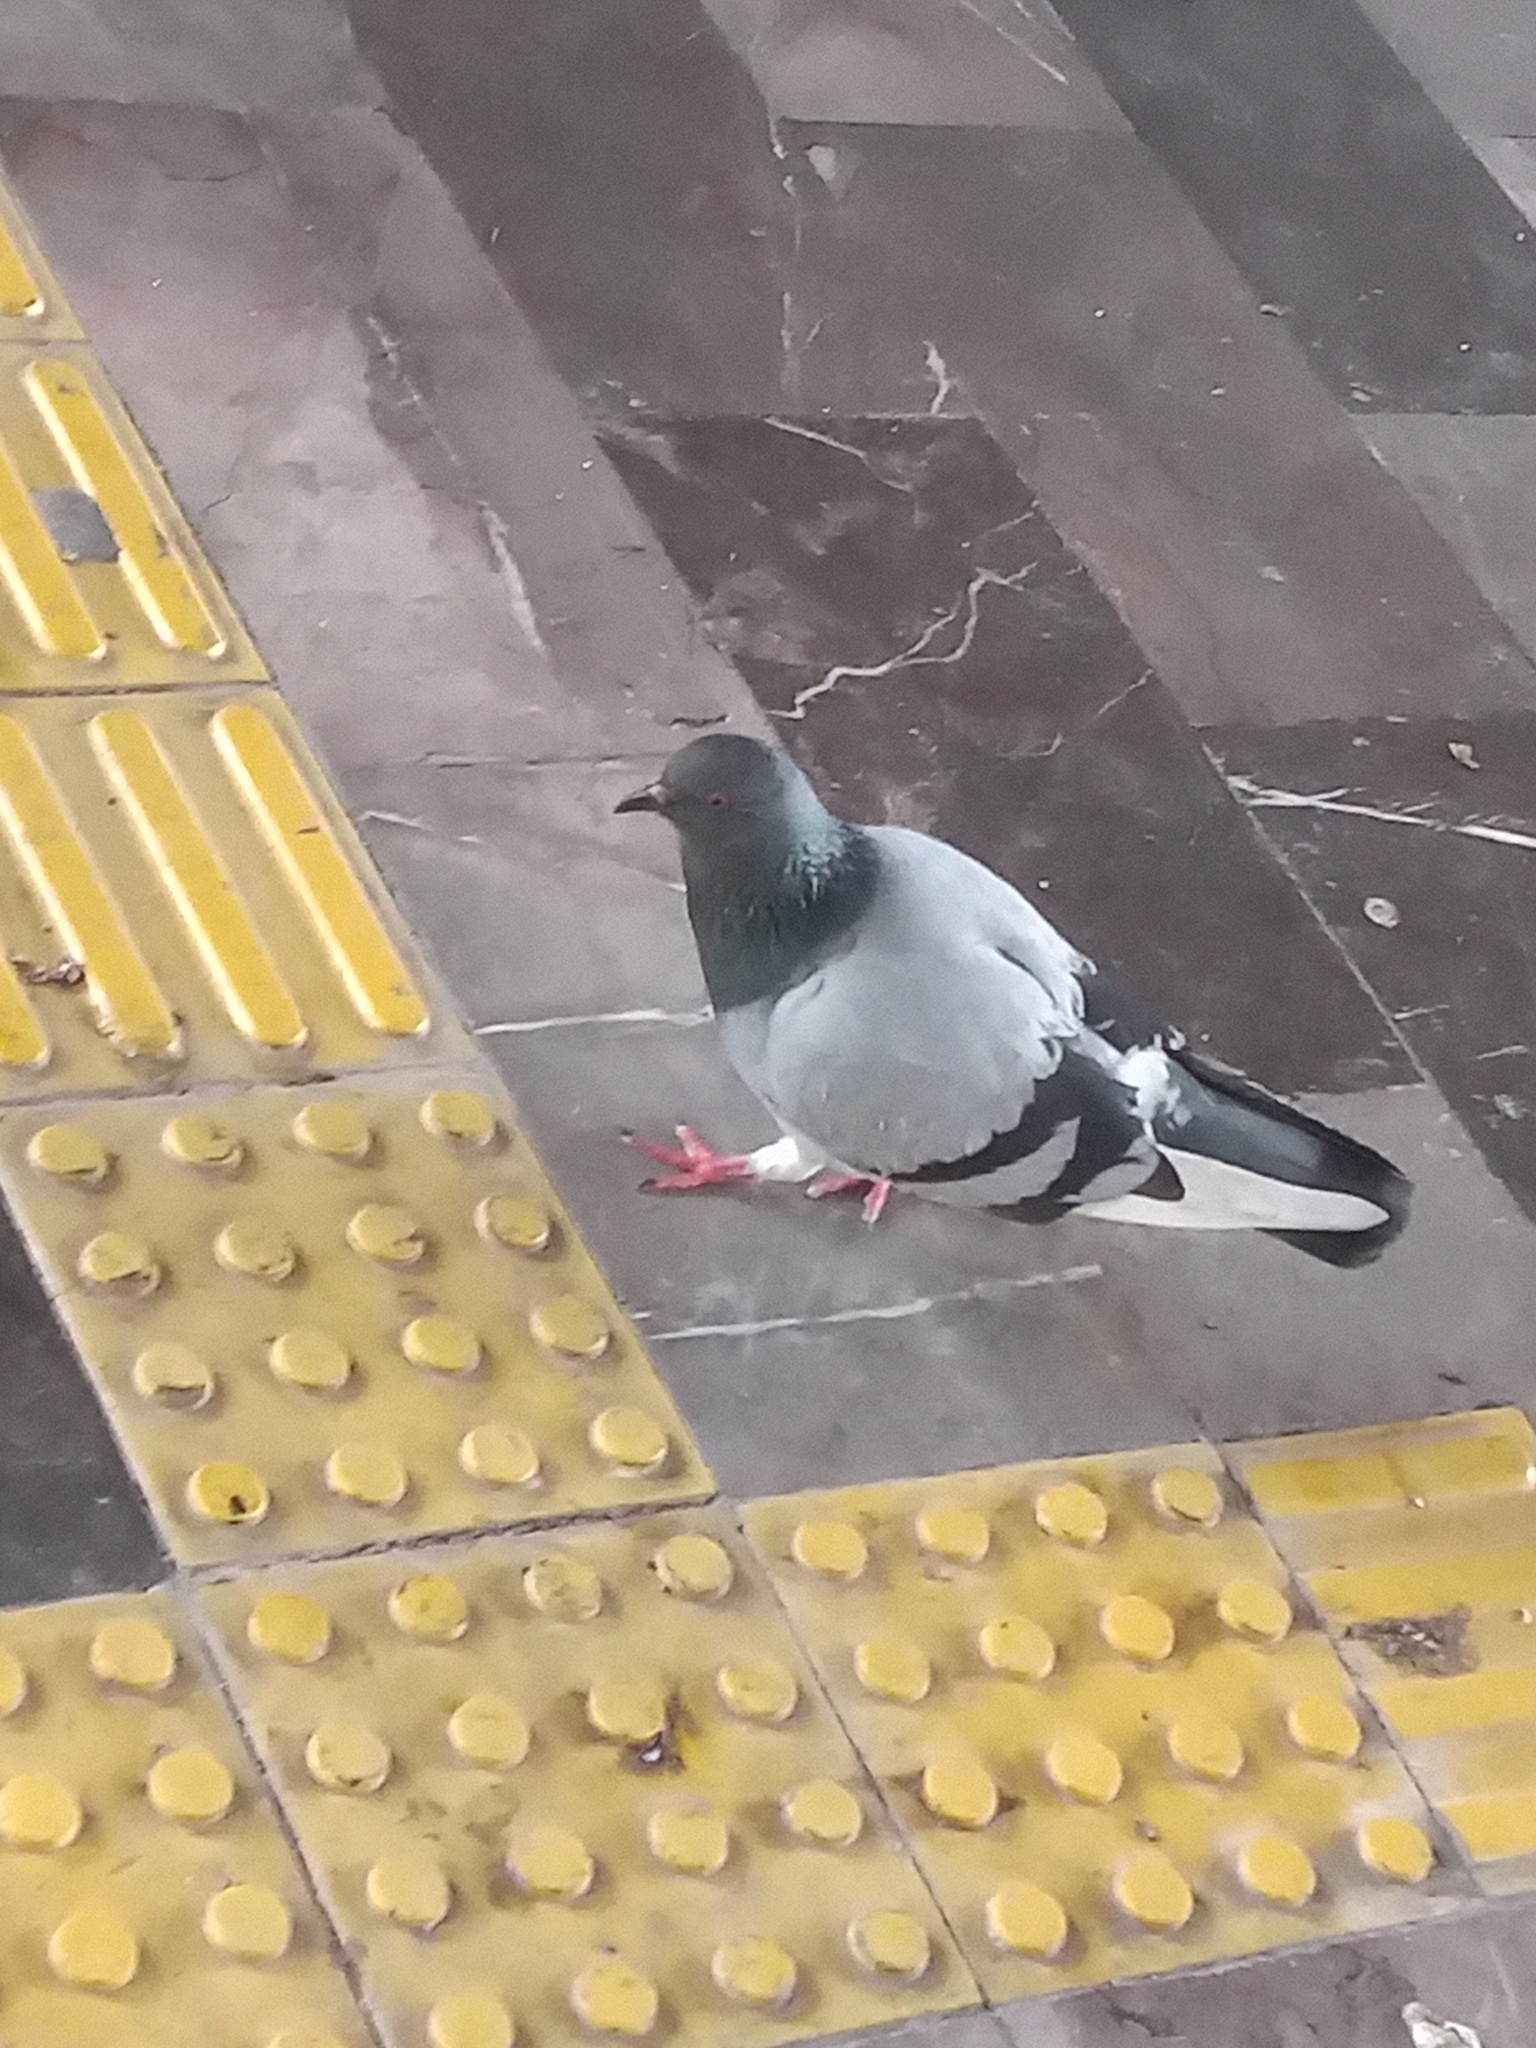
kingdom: Animalia
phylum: Chordata
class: Aves
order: Columbiformes
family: Columbidae
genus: Columba
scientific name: Columba livia
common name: Rock pigeon
